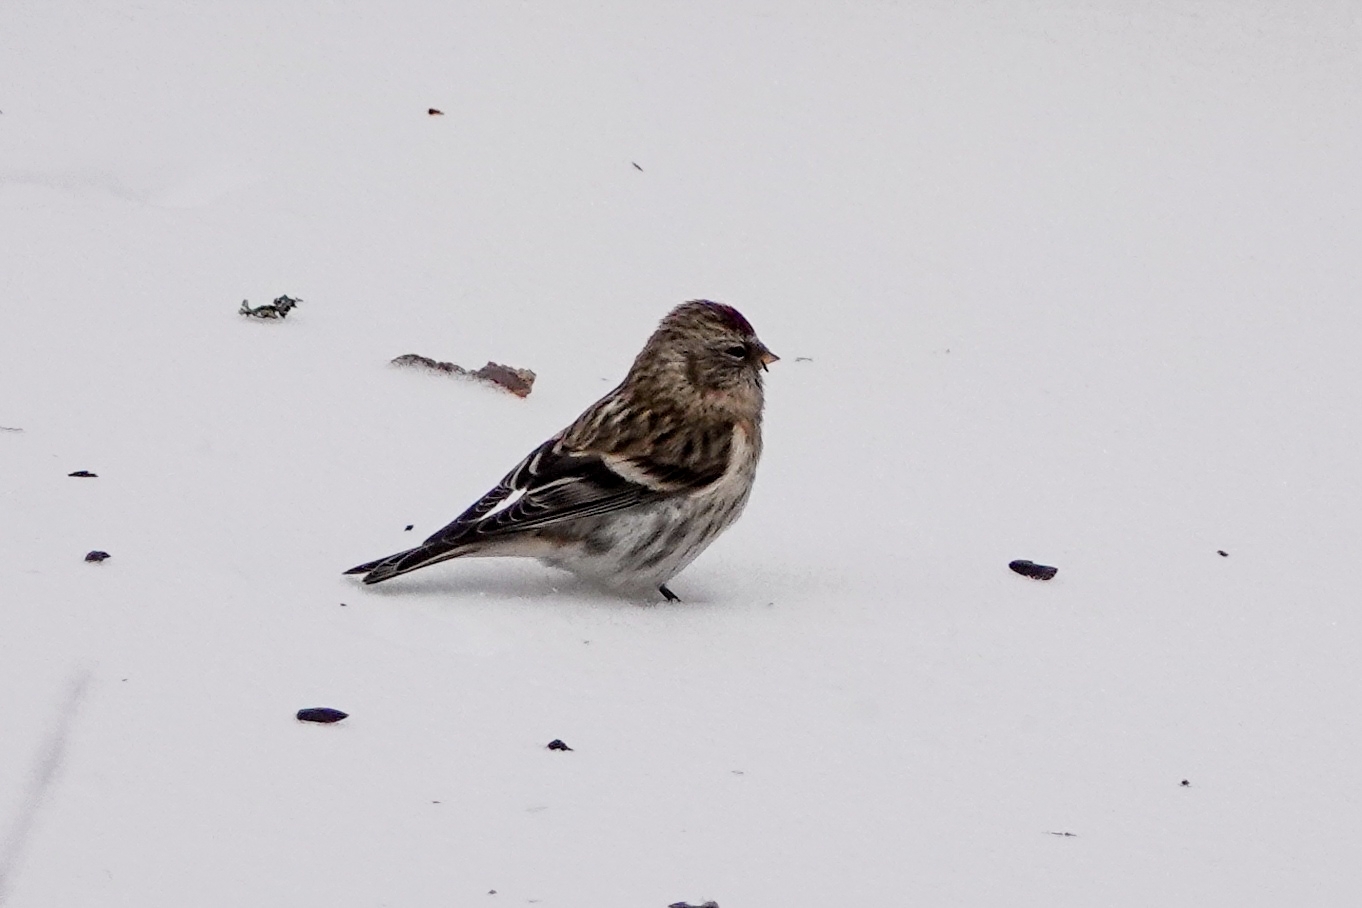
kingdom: Animalia
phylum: Chordata
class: Aves
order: Passeriformes
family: Fringillidae
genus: Acanthis
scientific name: Acanthis flammea
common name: Common redpoll
